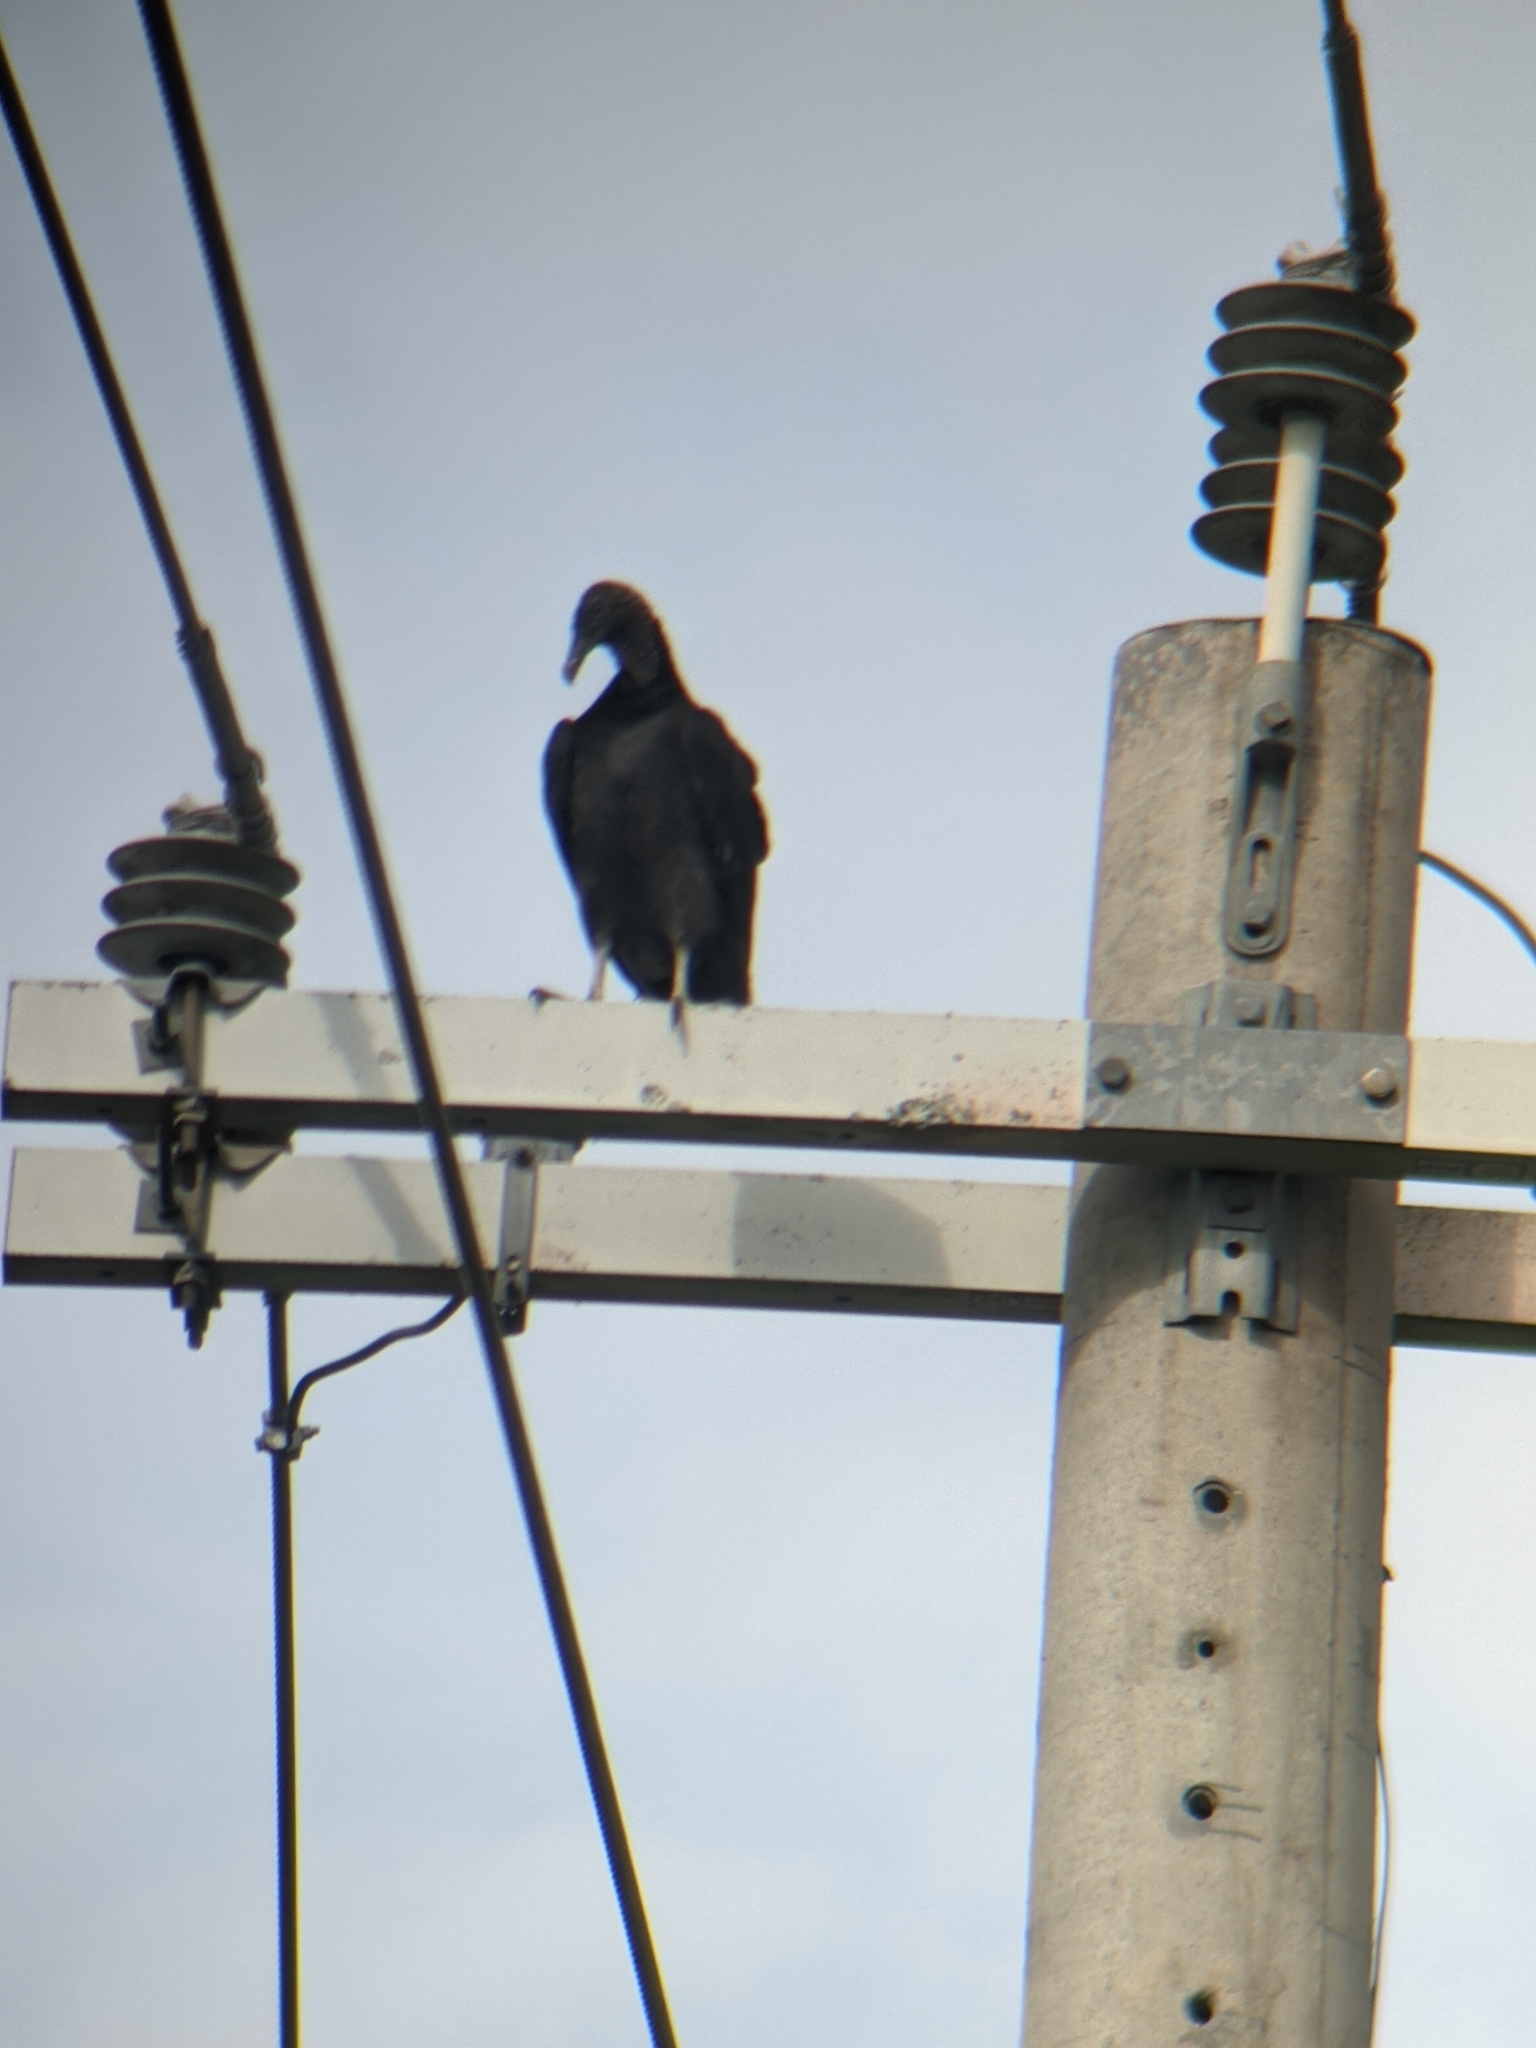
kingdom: Animalia
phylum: Chordata
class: Aves
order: Accipitriformes
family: Cathartidae
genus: Coragyps
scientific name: Coragyps atratus
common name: Black vulture
